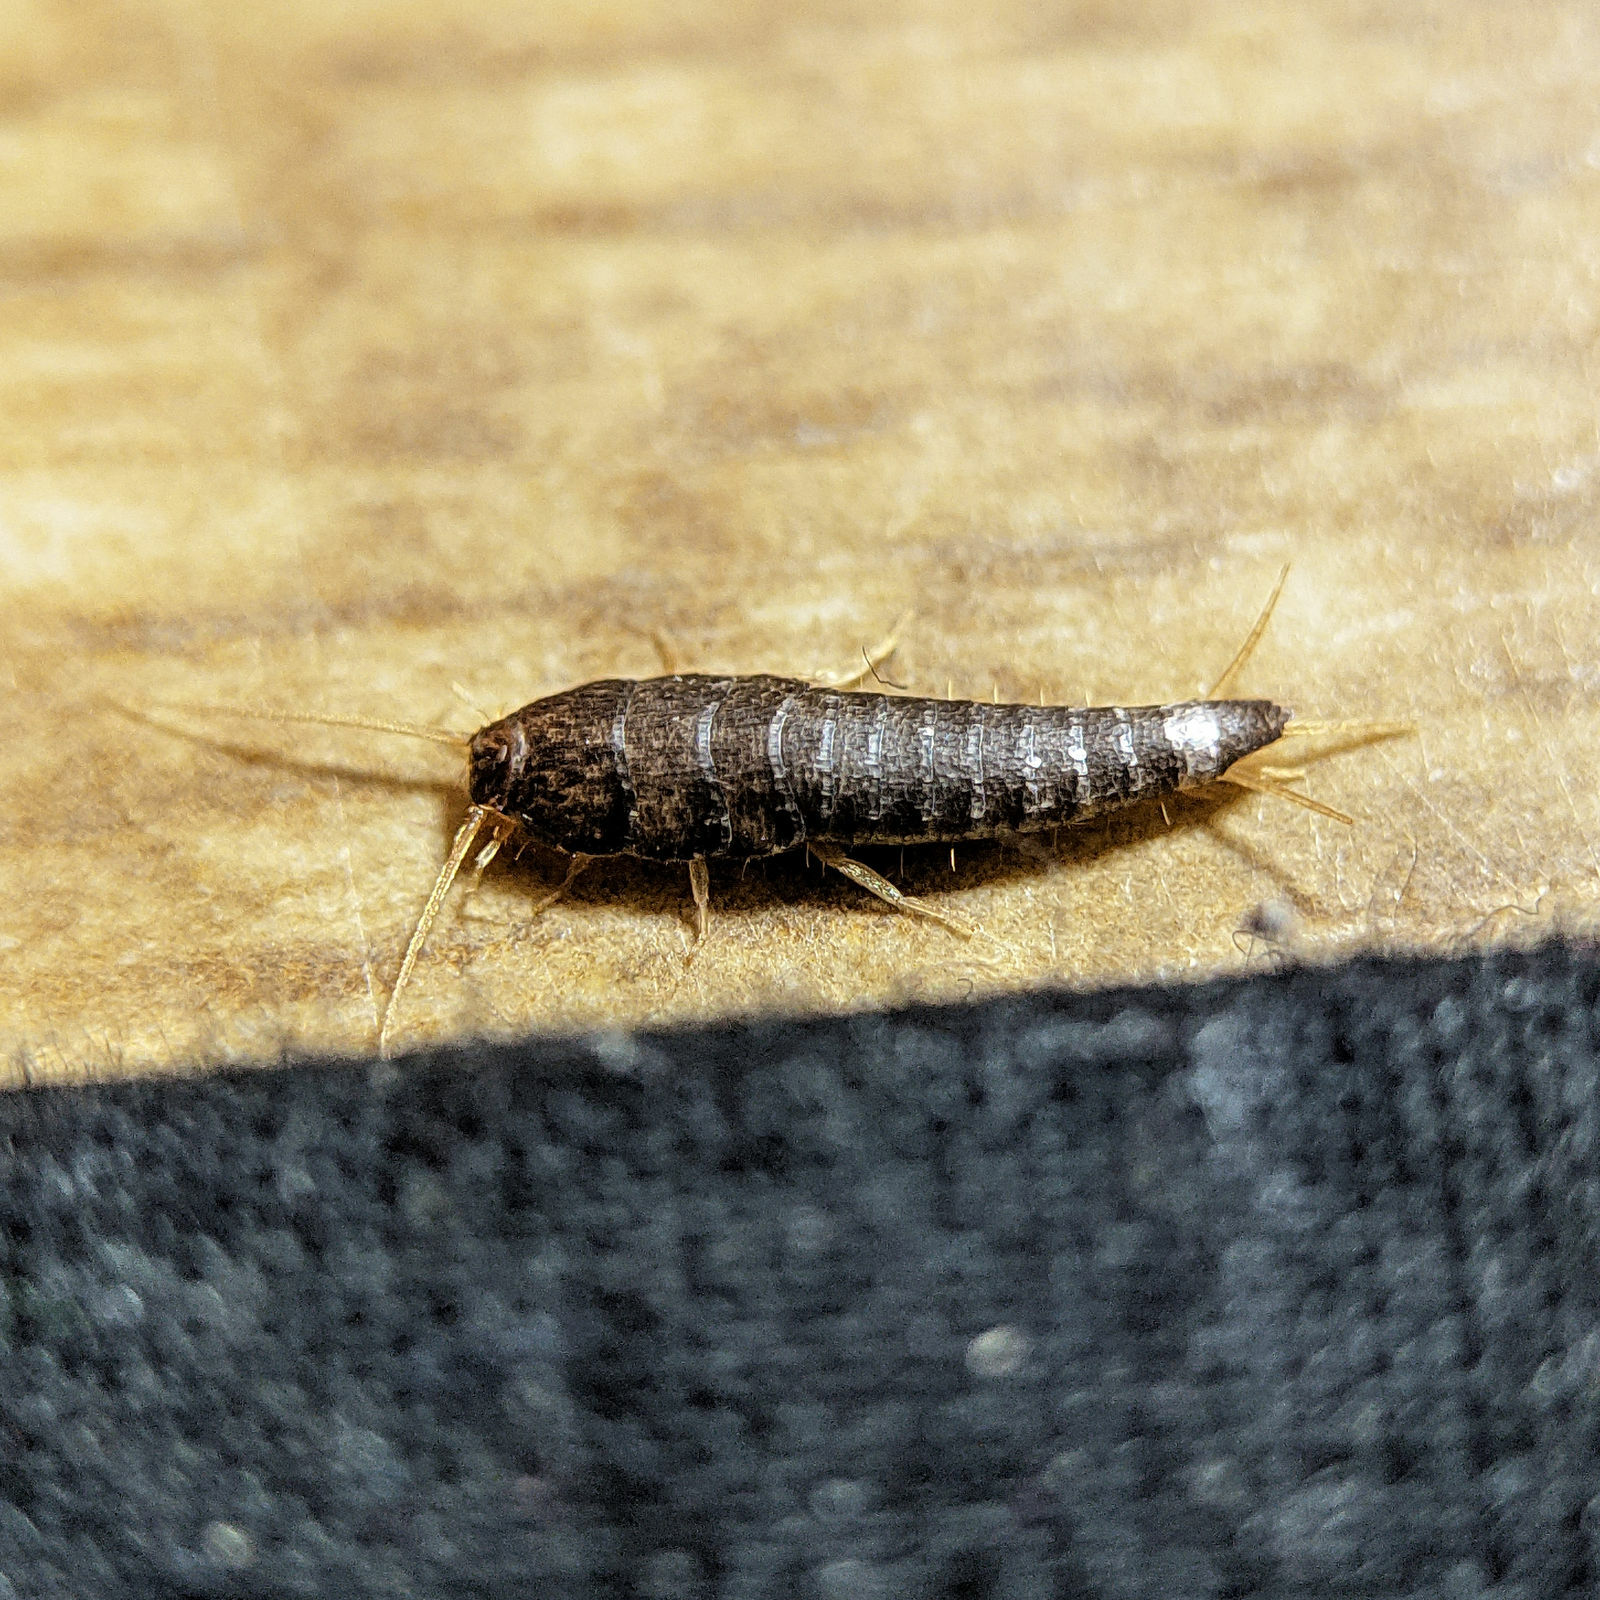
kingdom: Animalia
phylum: Arthropoda
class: Insecta
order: Zygentoma
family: Lepismatidae
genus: Lepisma
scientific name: Lepisma saccharinum
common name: Silverfish
